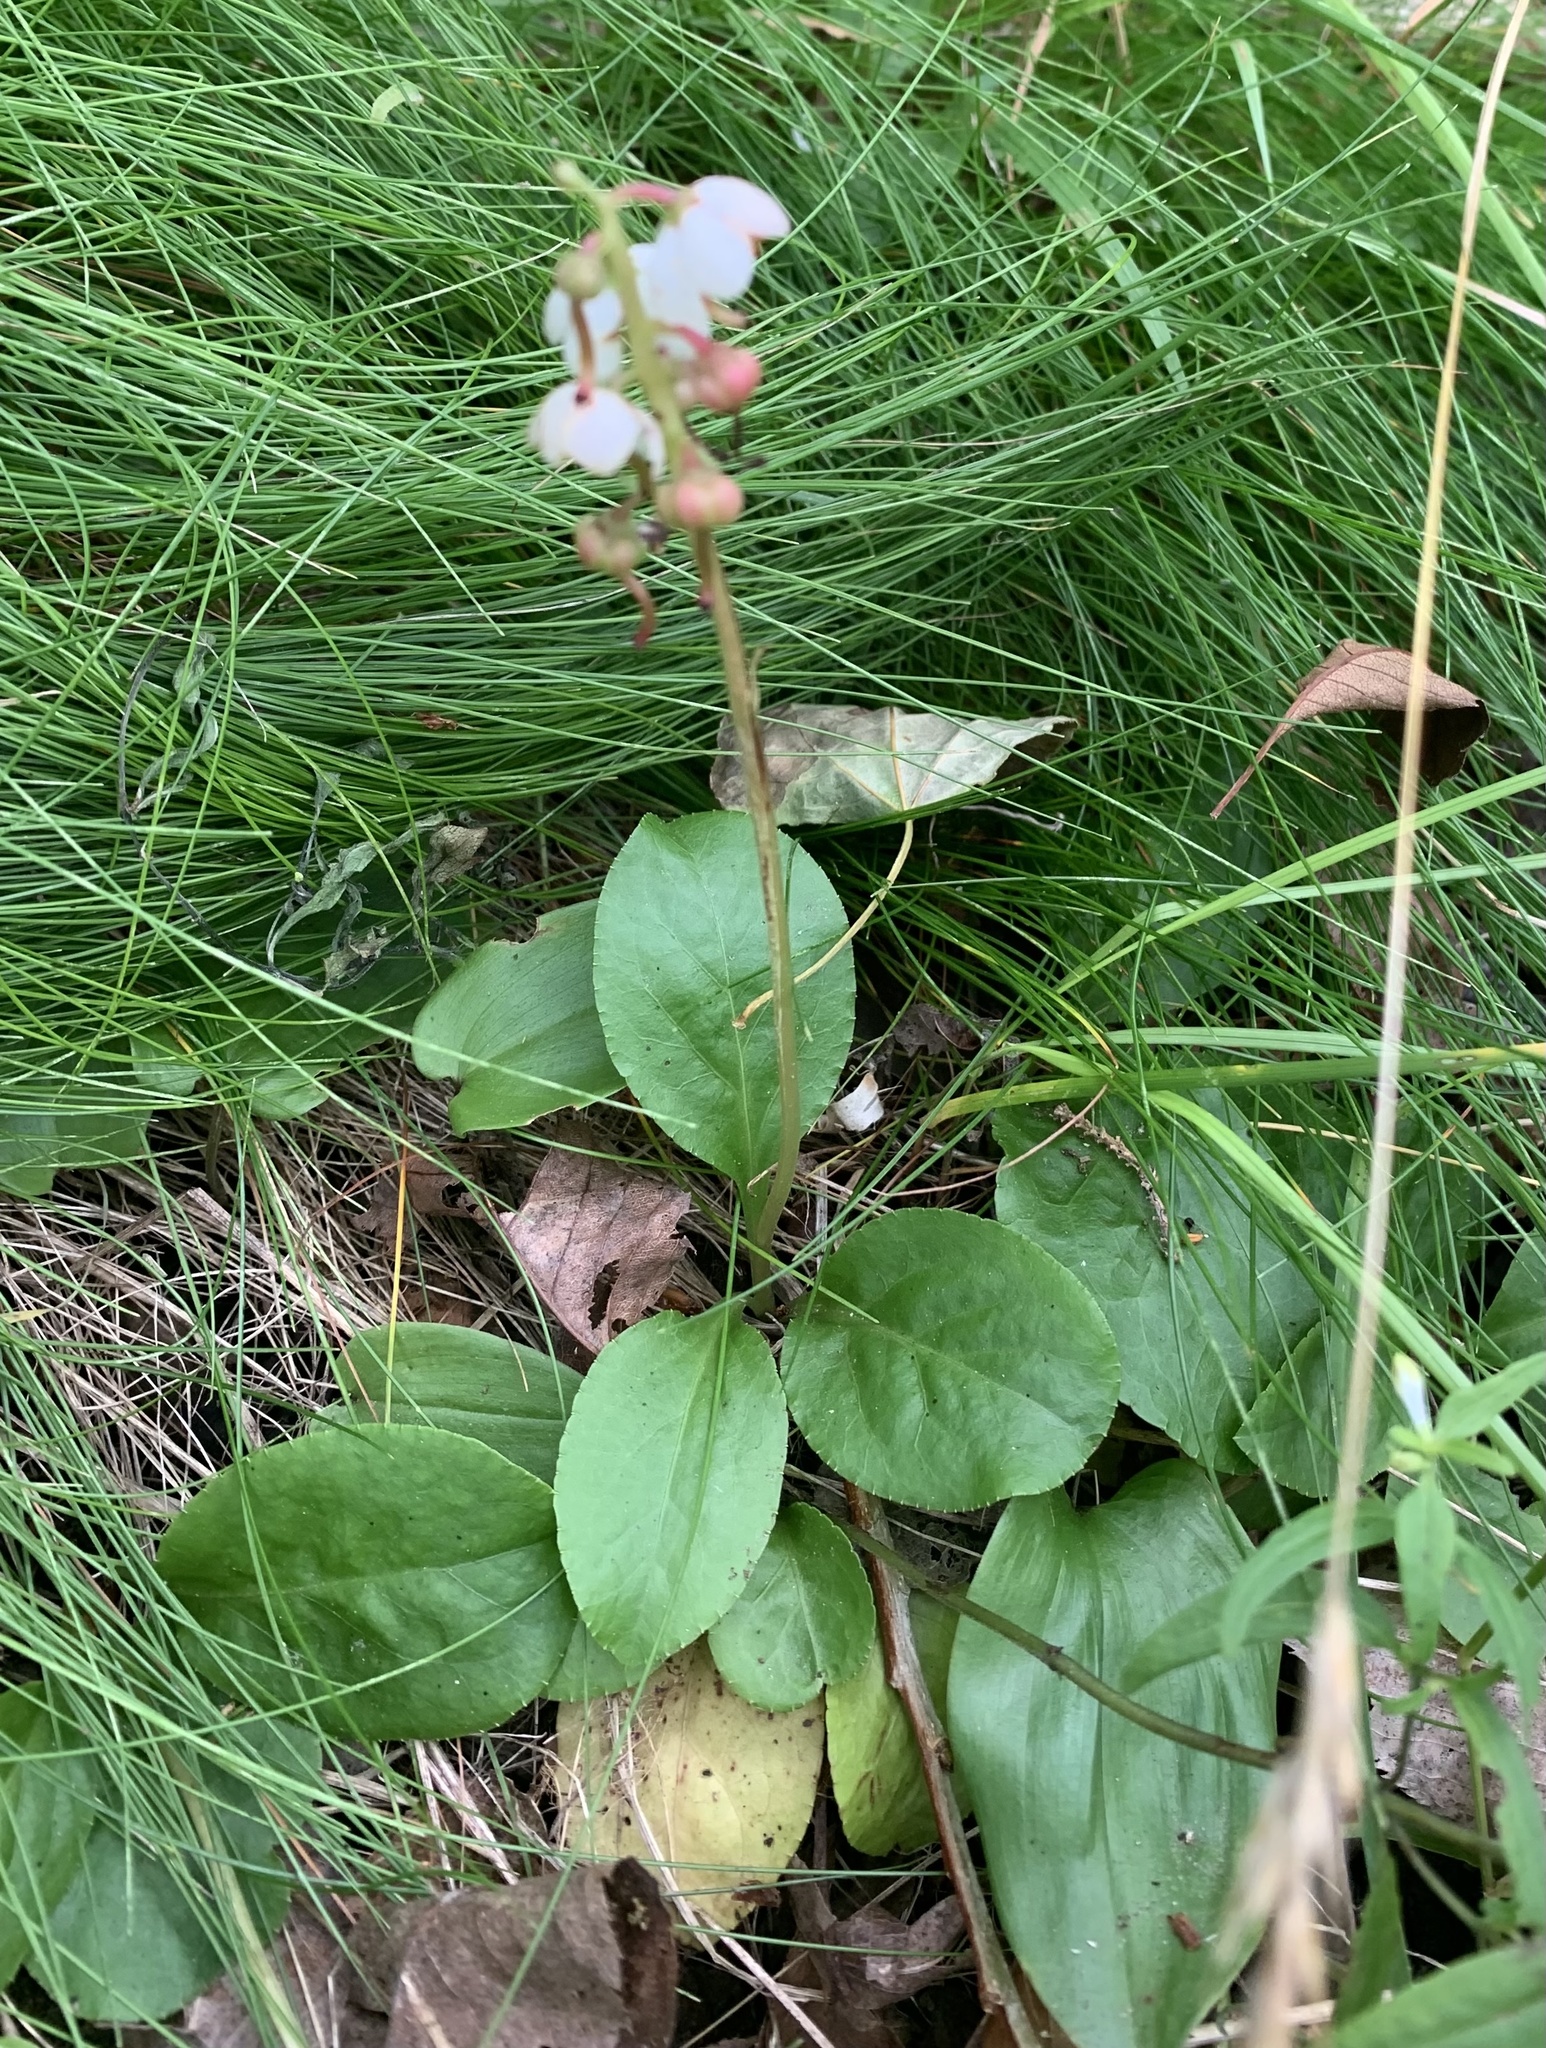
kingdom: Plantae
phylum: Tracheophyta
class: Magnoliopsida
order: Ericales
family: Ericaceae
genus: Pyrola
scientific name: Pyrola elliptica
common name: Shinleaf
